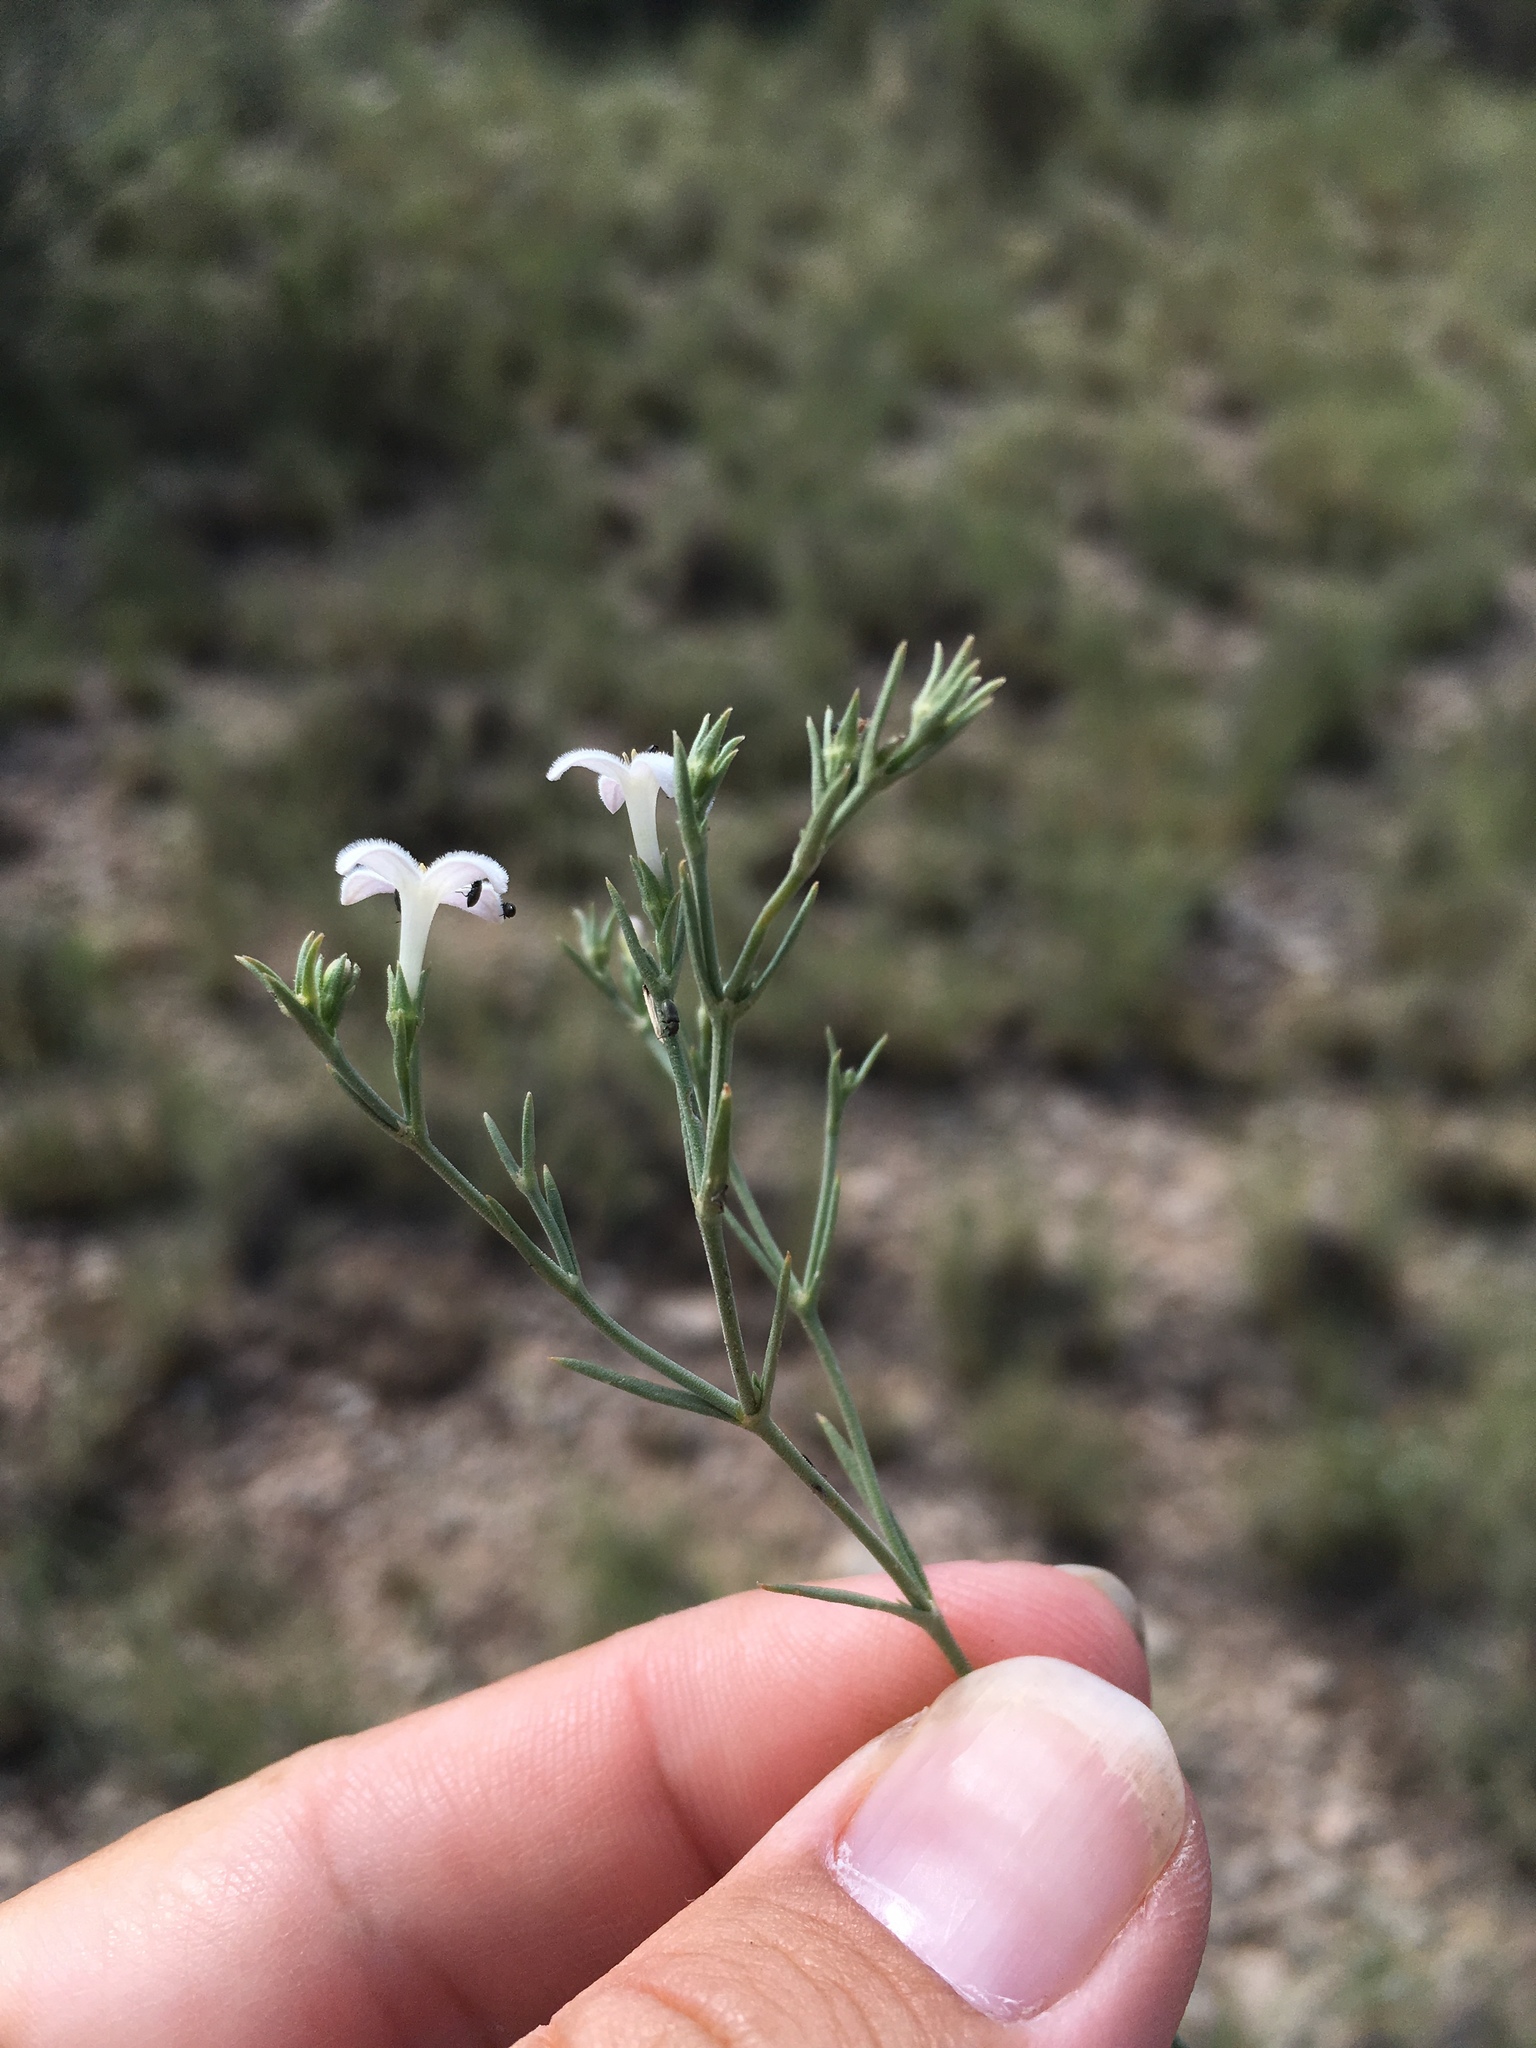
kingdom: Plantae
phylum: Tracheophyta
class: Magnoliopsida
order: Gentianales
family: Rubiaceae
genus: Houstonia
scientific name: Houstonia acerosa
